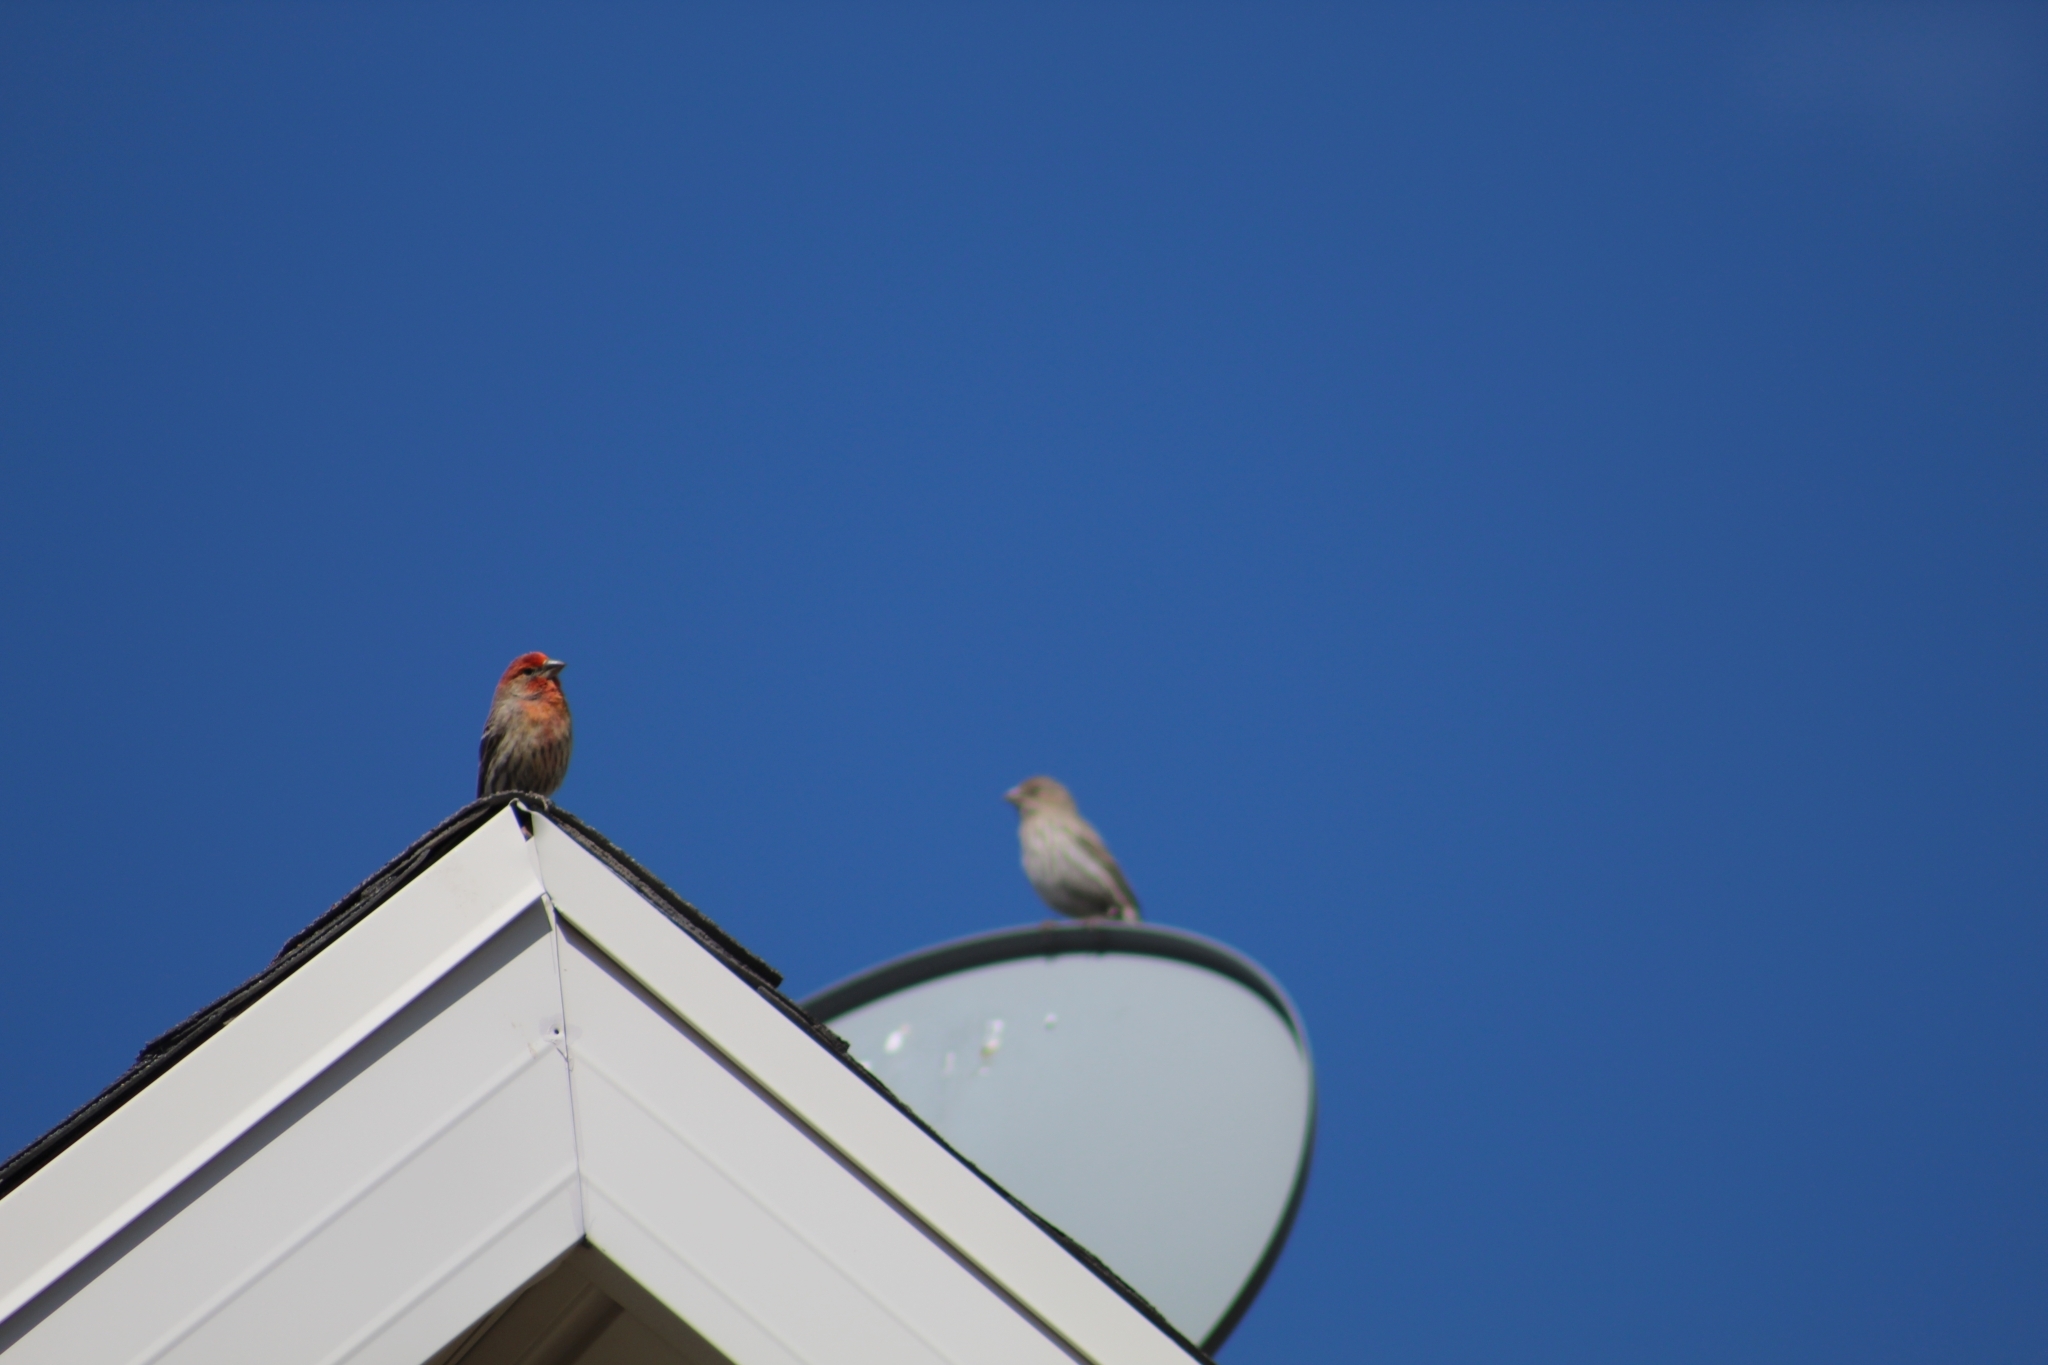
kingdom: Animalia
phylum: Chordata
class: Aves
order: Passeriformes
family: Fringillidae
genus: Haemorhous
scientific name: Haemorhous mexicanus
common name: House finch
